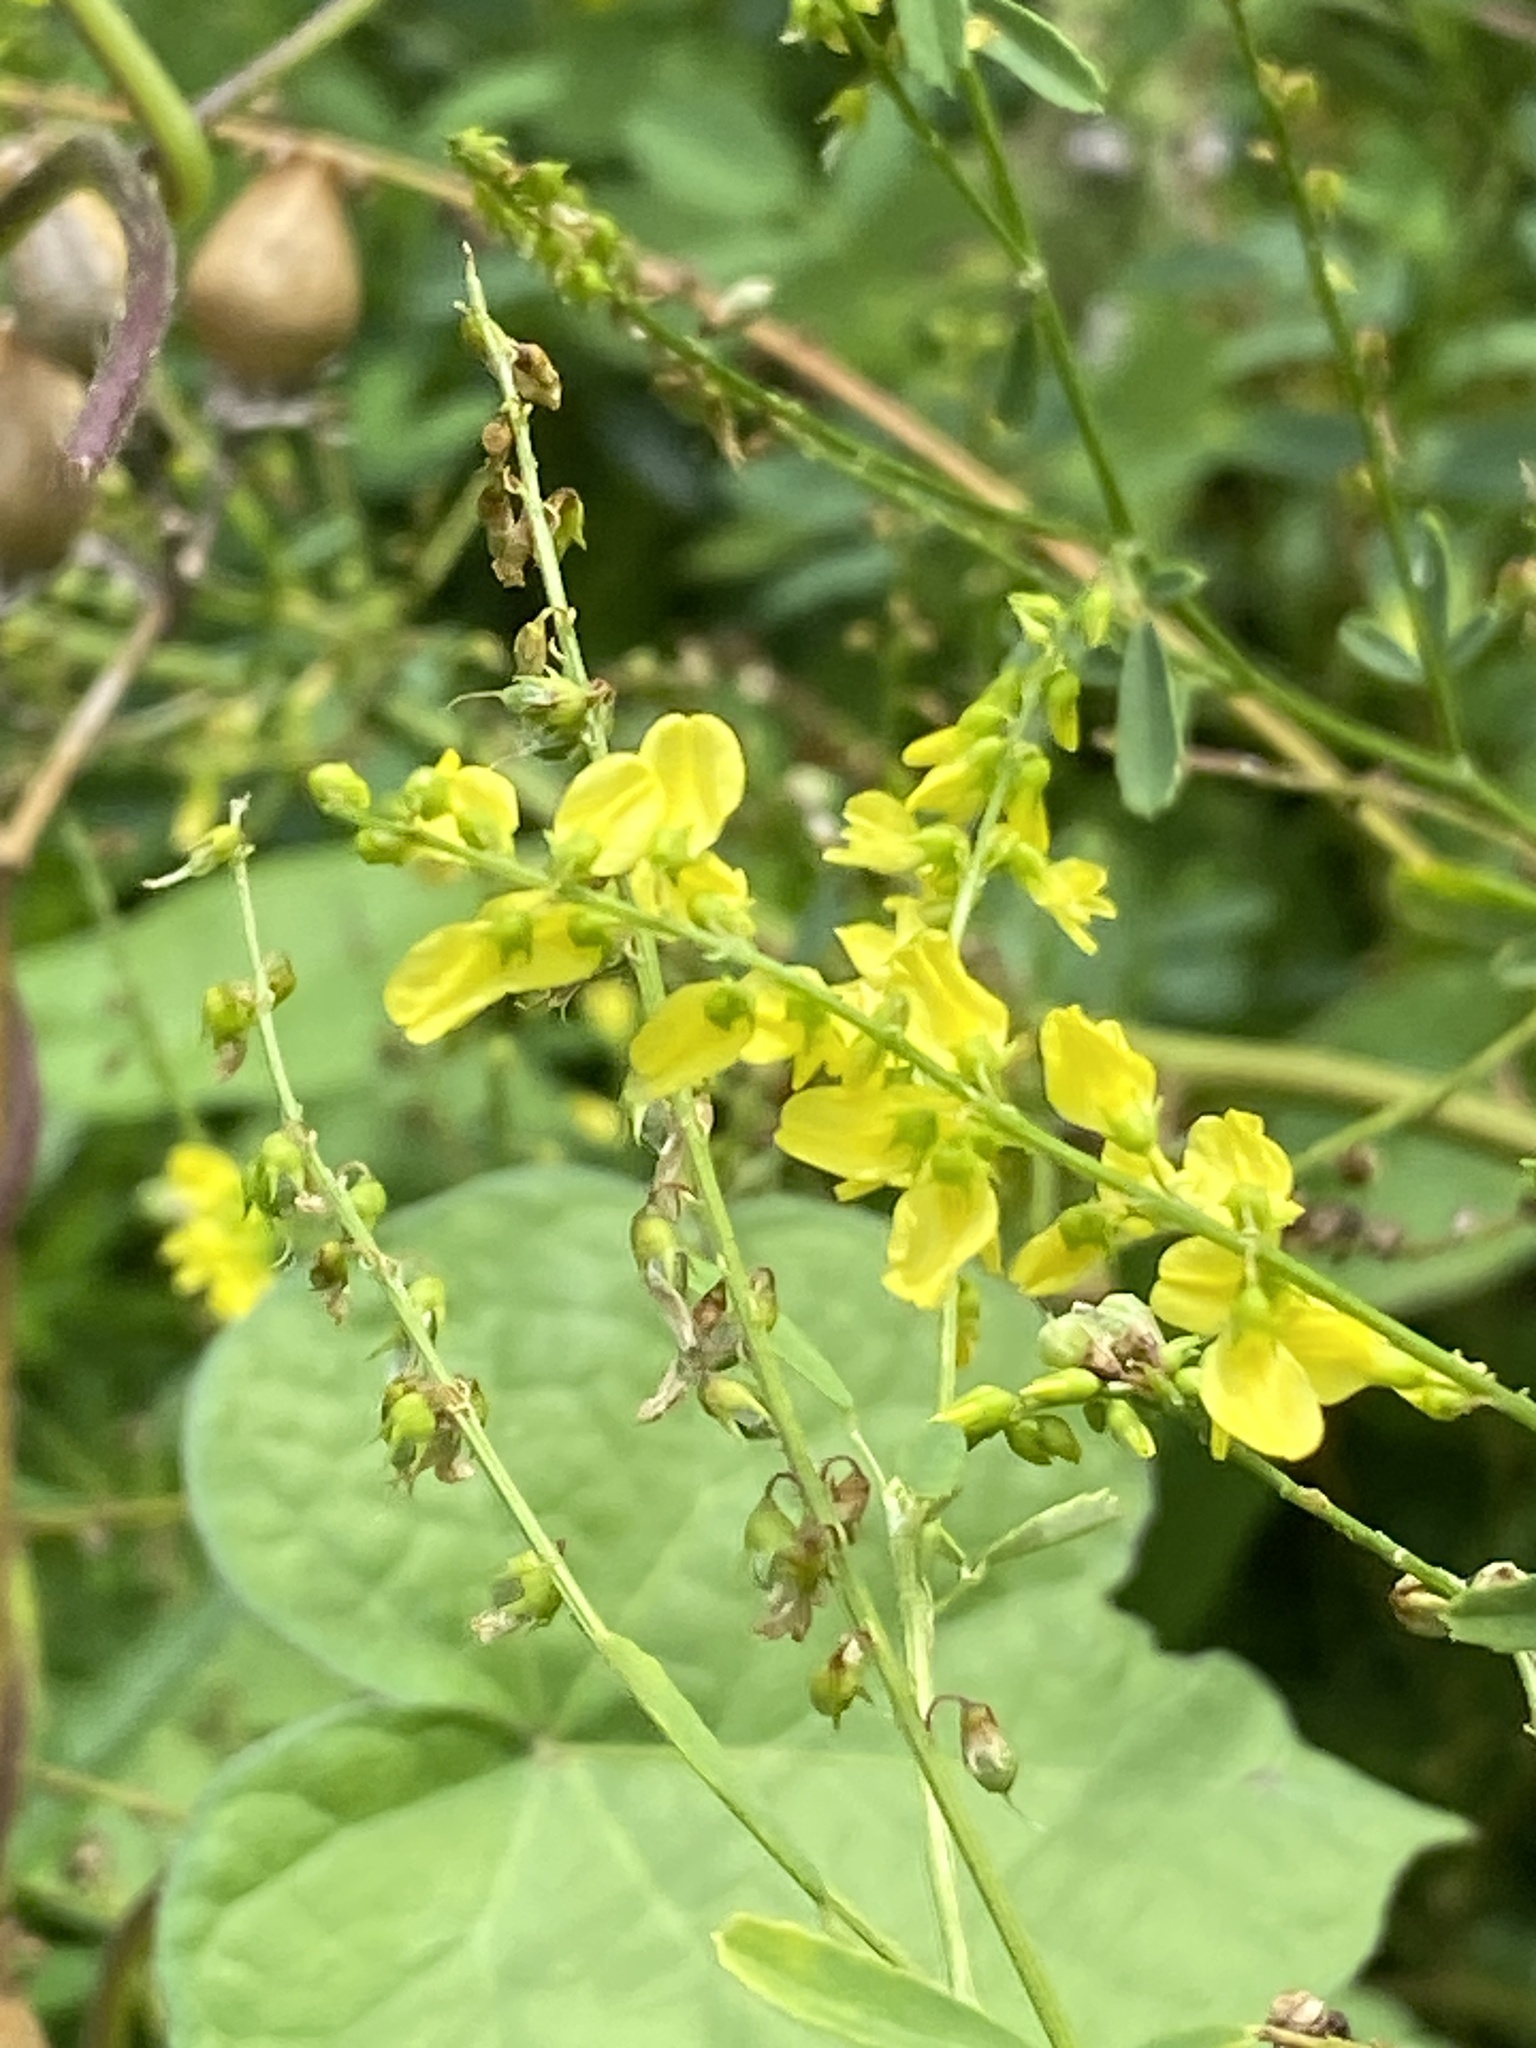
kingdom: Plantae
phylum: Tracheophyta
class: Magnoliopsida
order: Fabales
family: Fabaceae
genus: Melilotus
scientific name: Melilotus officinalis
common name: Sweetclover
